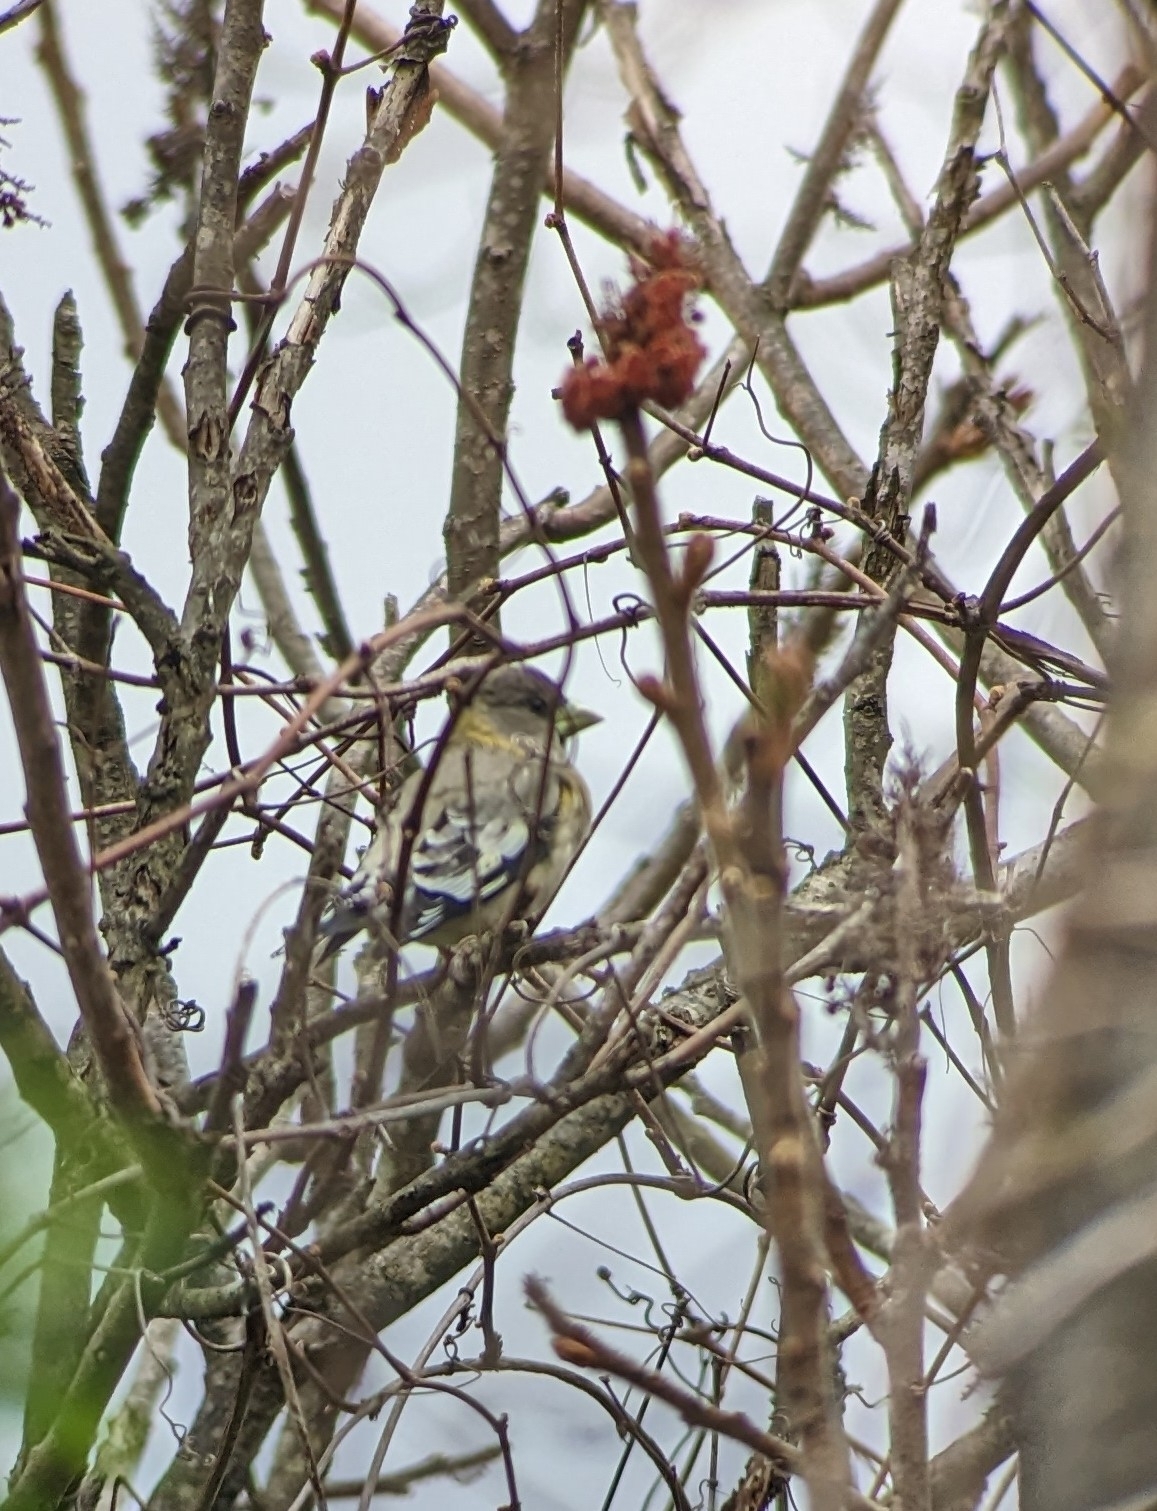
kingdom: Animalia
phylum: Chordata
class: Aves
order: Passeriformes
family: Fringillidae
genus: Hesperiphona
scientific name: Hesperiphona vespertina
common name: Evening grosbeak
